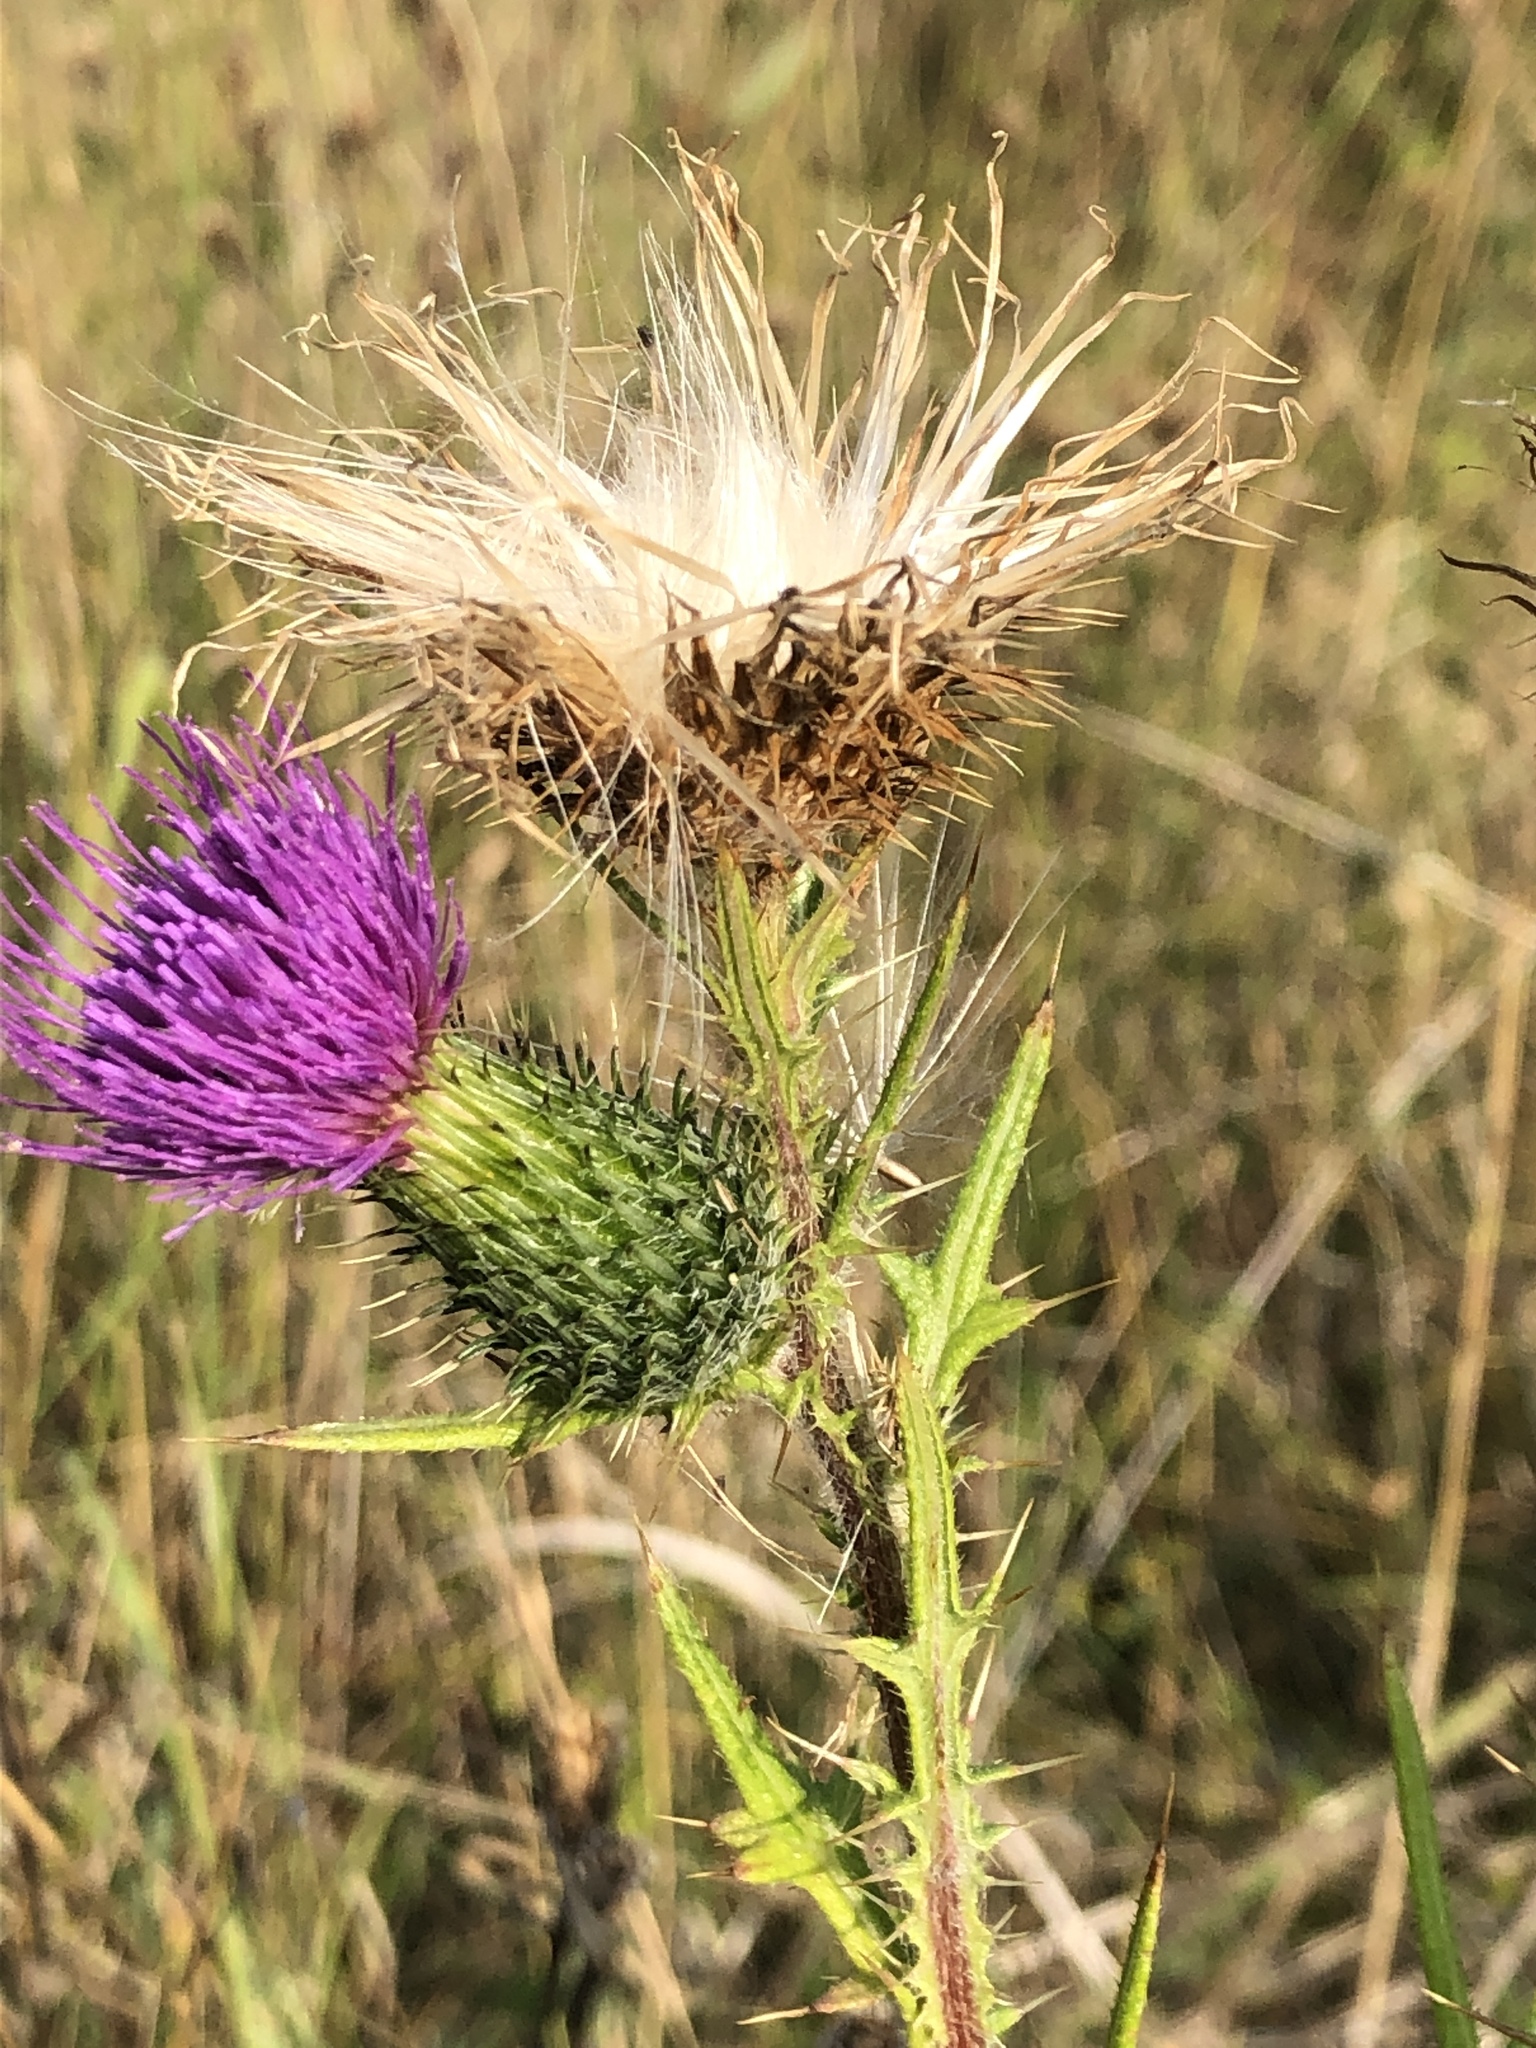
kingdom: Plantae
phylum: Tracheophyta
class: Magnoliopsida
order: Asterales
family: Asteraceae
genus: Cirsium
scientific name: Cirsium vulgare
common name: Bull thistle
